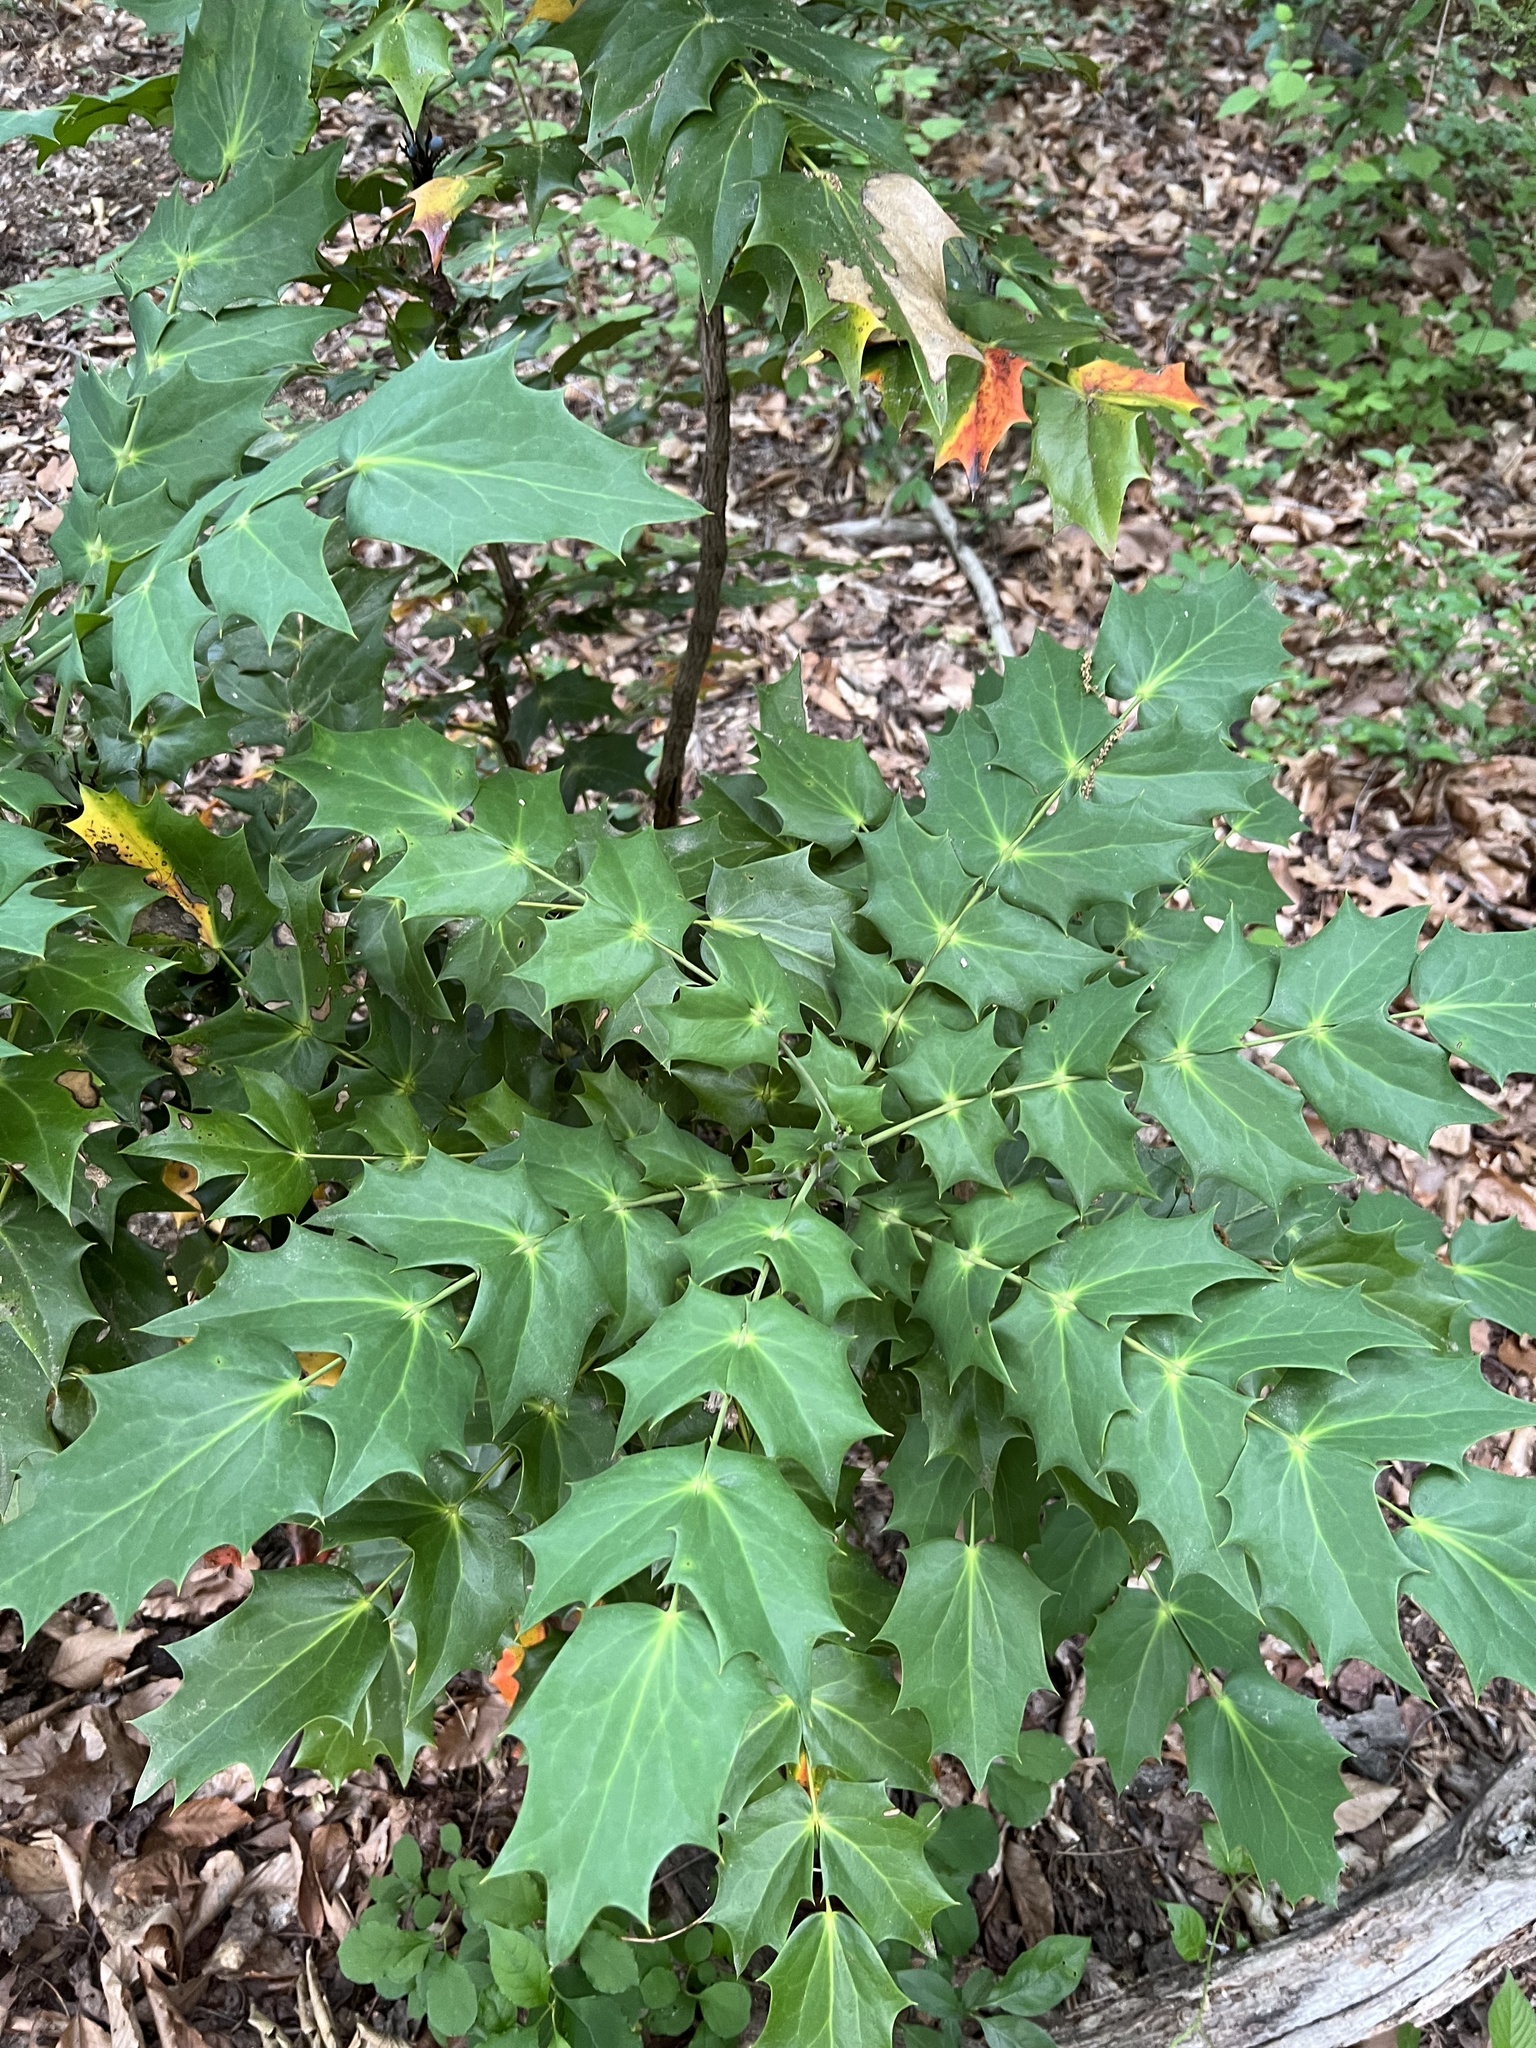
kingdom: Plantae
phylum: Tracheophyta
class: Magnoliopsida
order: Ranunculales
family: Berberidaceae
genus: Mahonia
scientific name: Mahonia bealei
